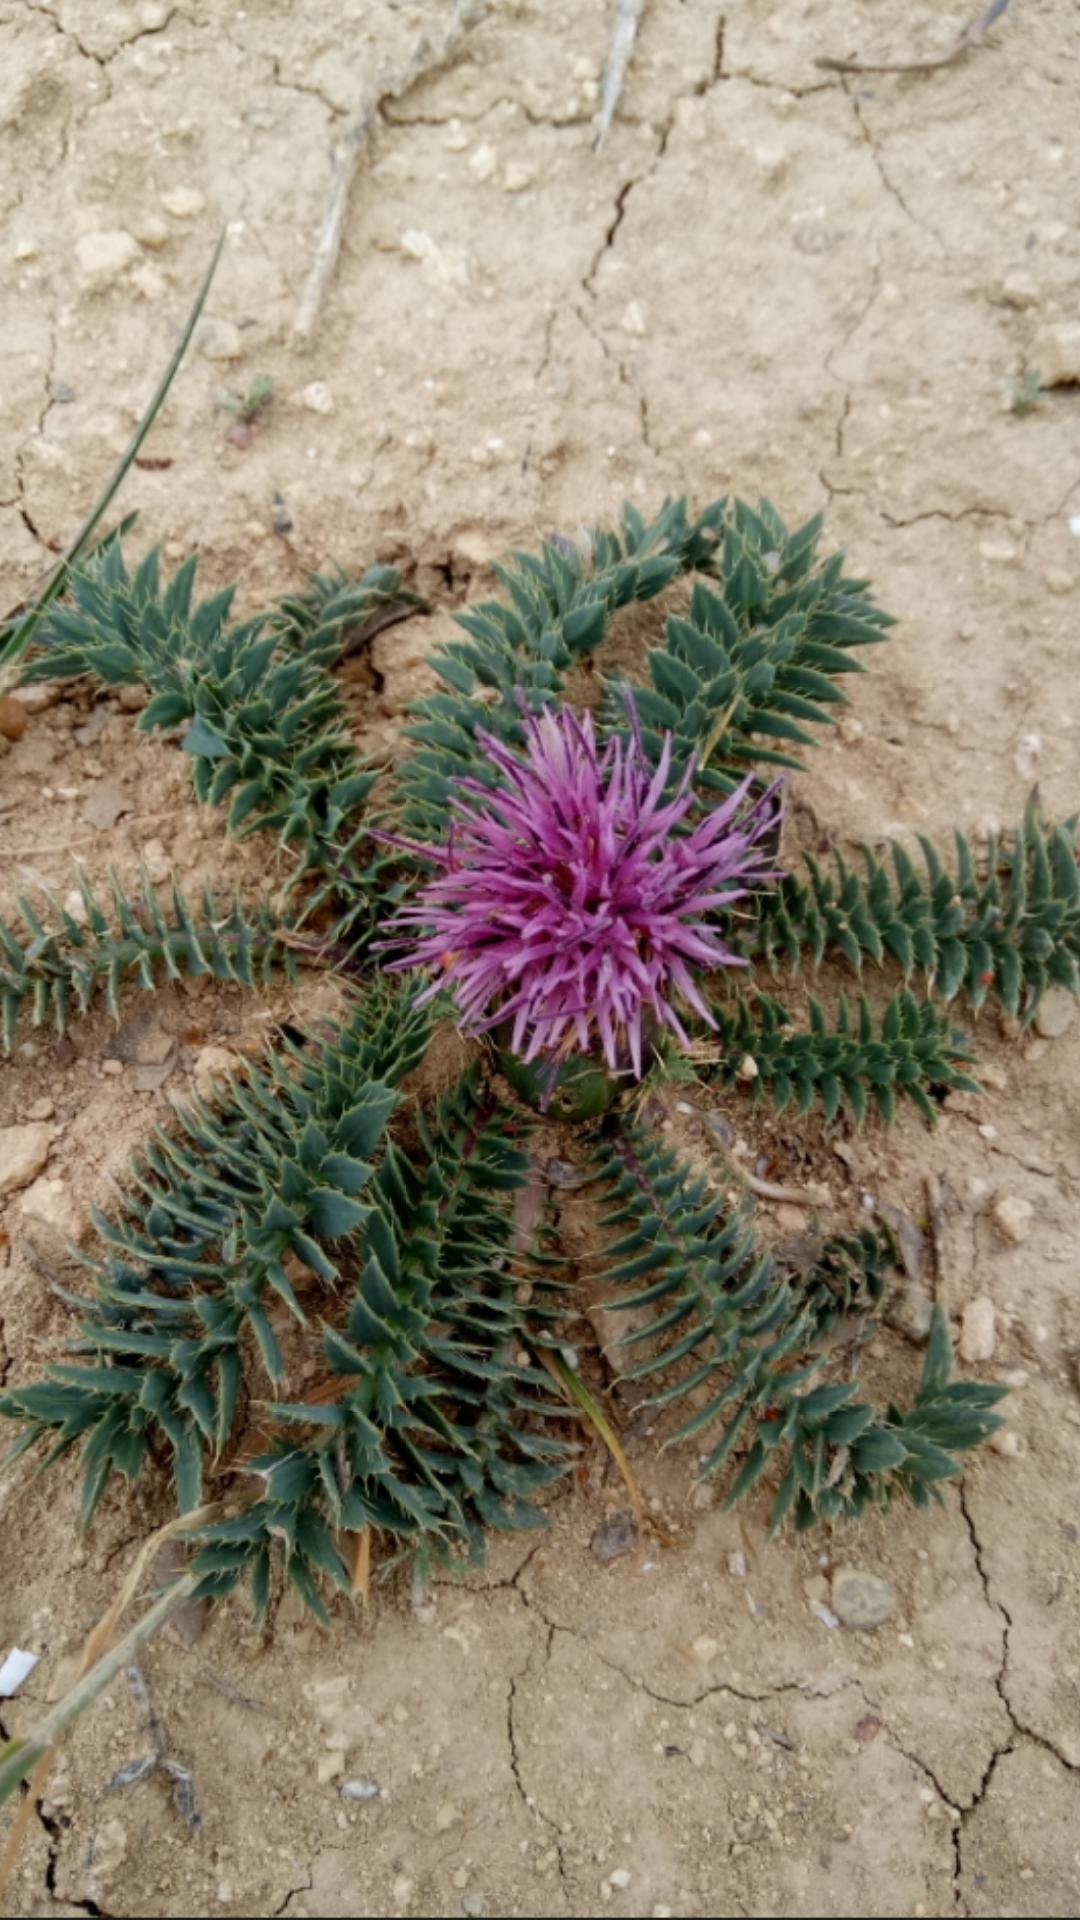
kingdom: Plantae
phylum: Tracheophyta
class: Magnoliopsida
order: Asterales
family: Asteraceae
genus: Carduncellus
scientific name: Carduncellus
